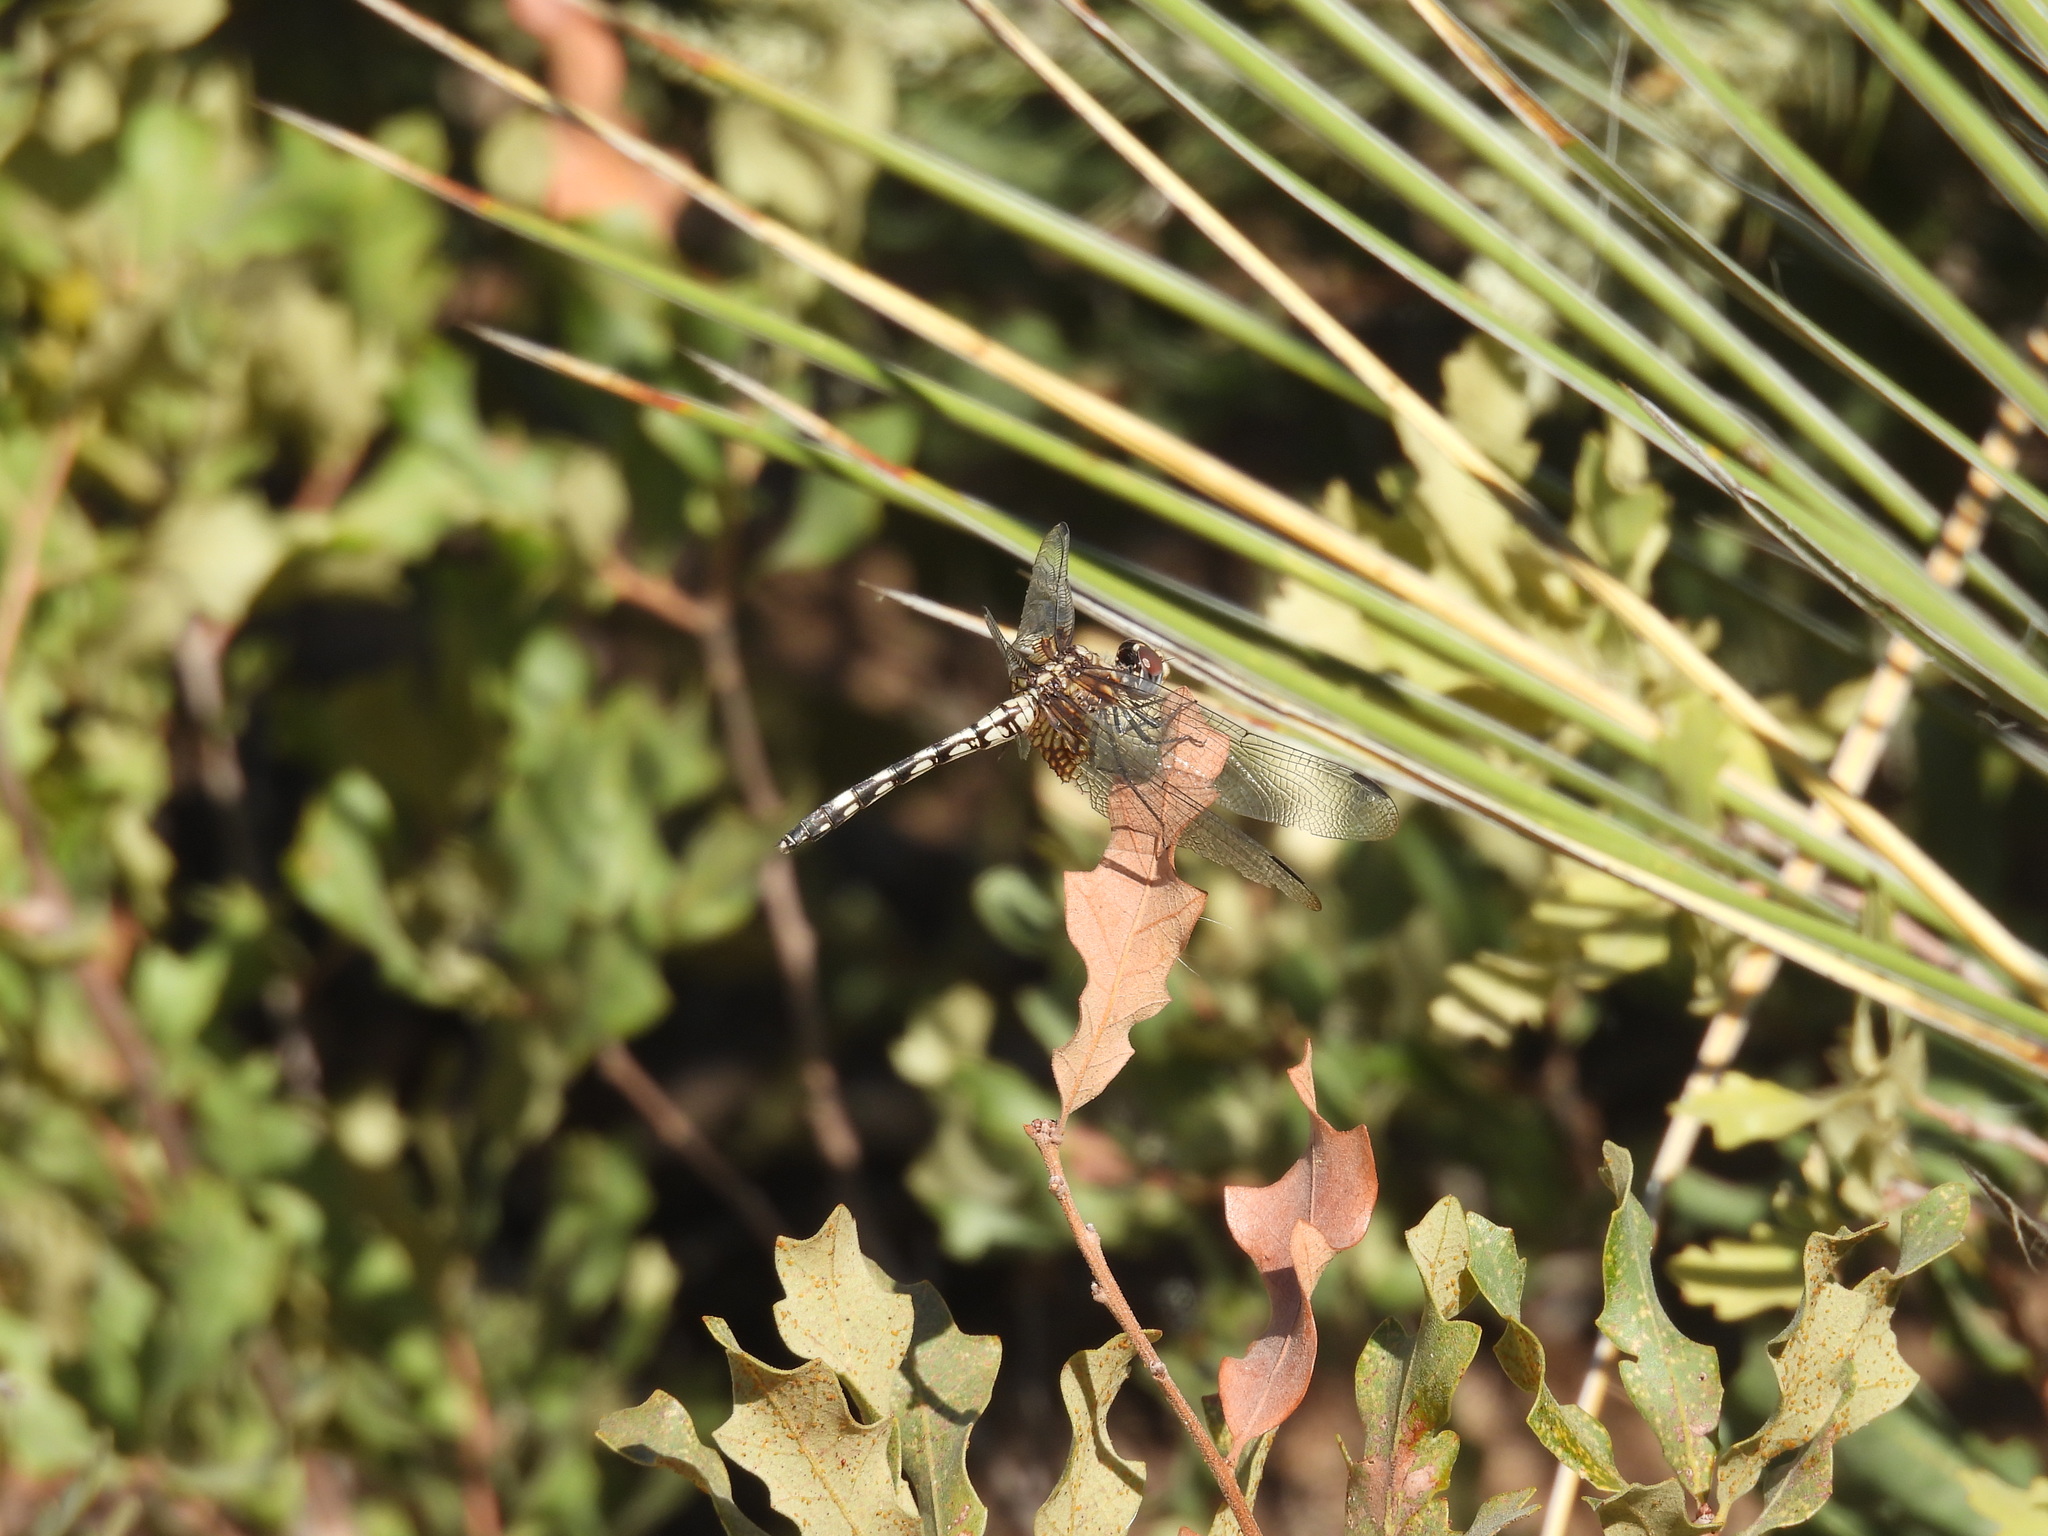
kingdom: Animalia
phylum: Arthropoda
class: Insecta
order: Odonata
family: Libellulidae
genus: Dythemis
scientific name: Dythemis fugax
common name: Checkered setwing
